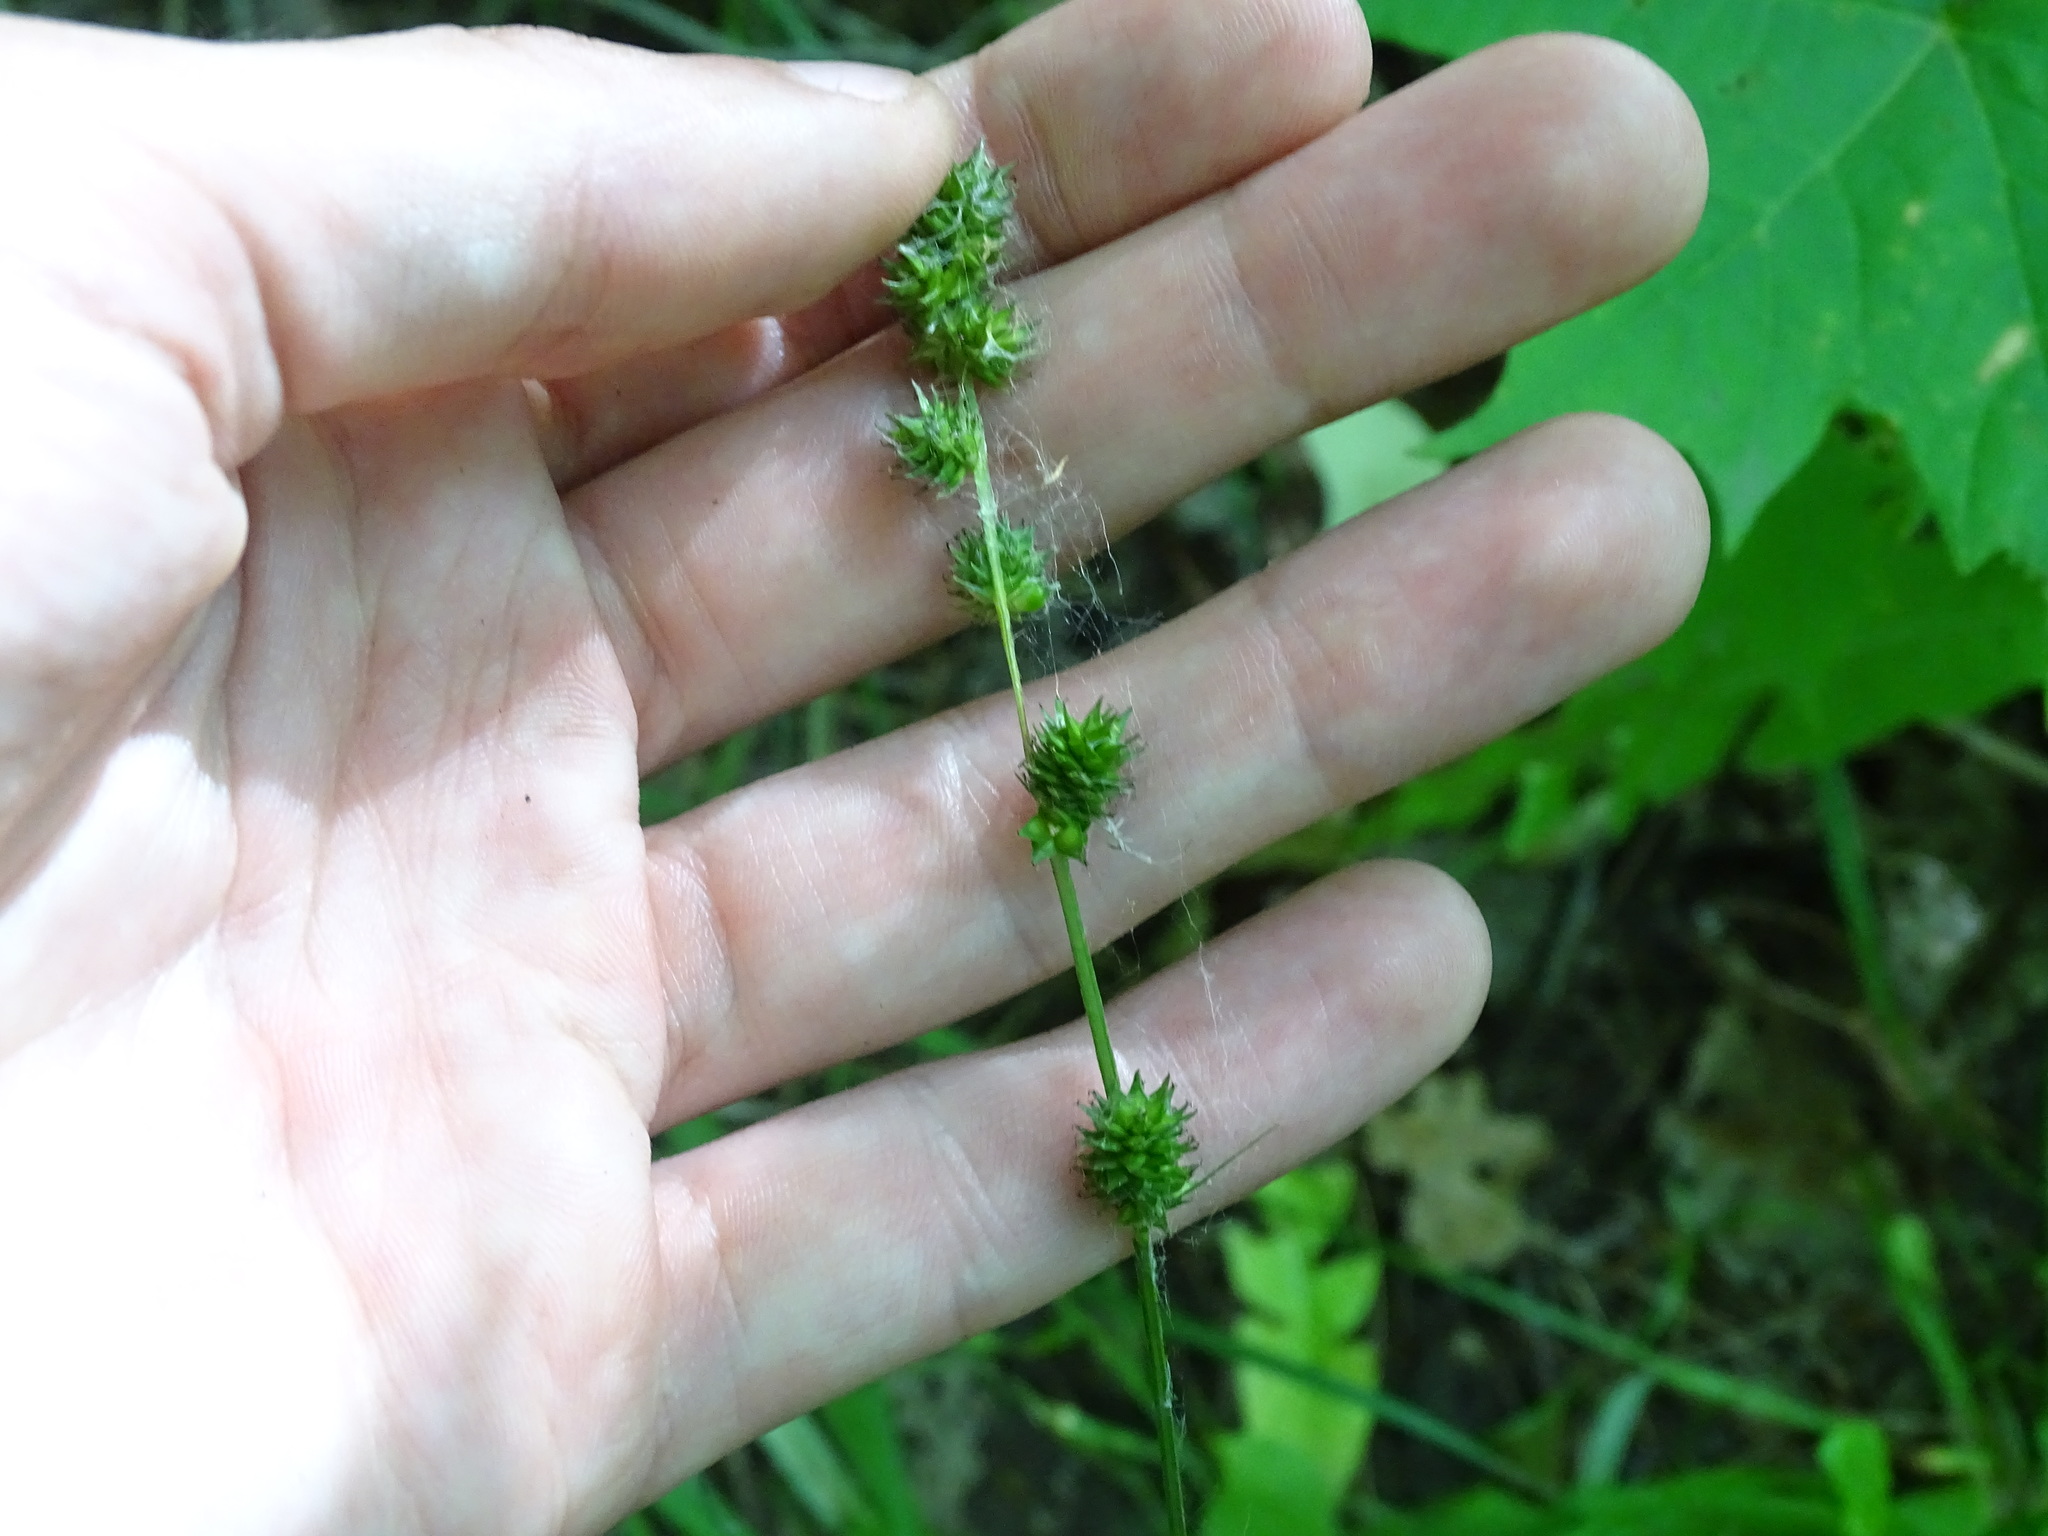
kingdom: Plantae
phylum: Tracheophyta
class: Liliopsida
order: Poales
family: Cyperaceae
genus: Carex
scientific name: Carex sparganioides
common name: Burreed sedge
